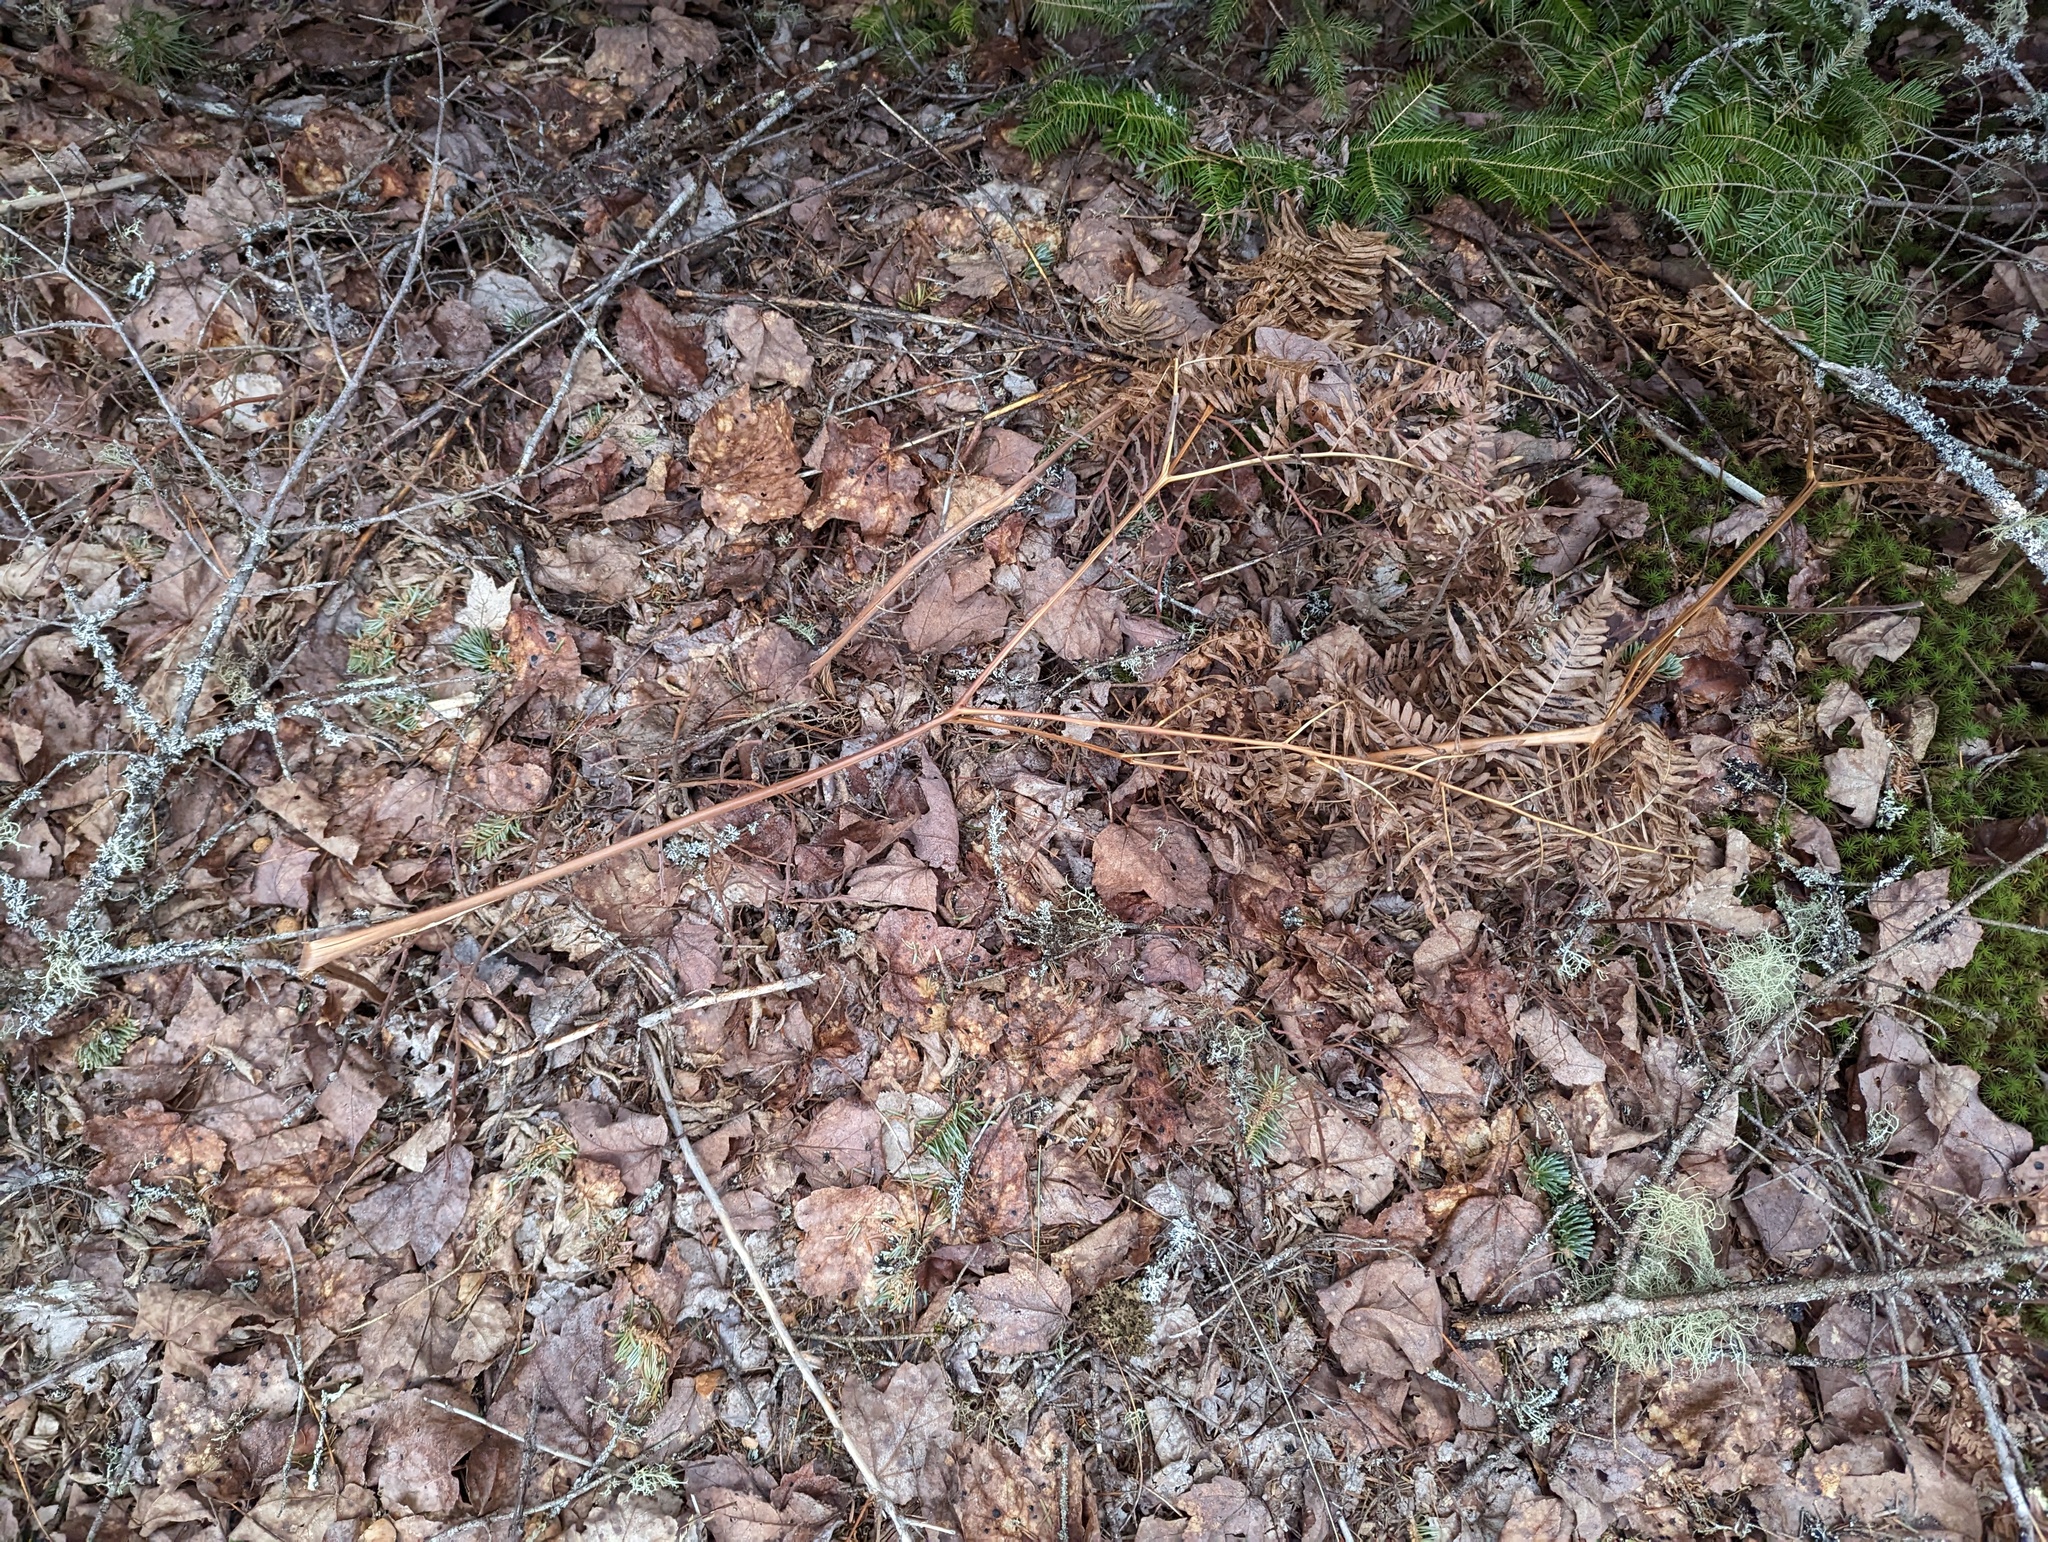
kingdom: Plantae
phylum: Tracheophyta
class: Polypodiopsida
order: Polypodiales
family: Dennstaedtiaceae
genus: Pteridium
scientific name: Pteridium aquilinum
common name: Bracken
